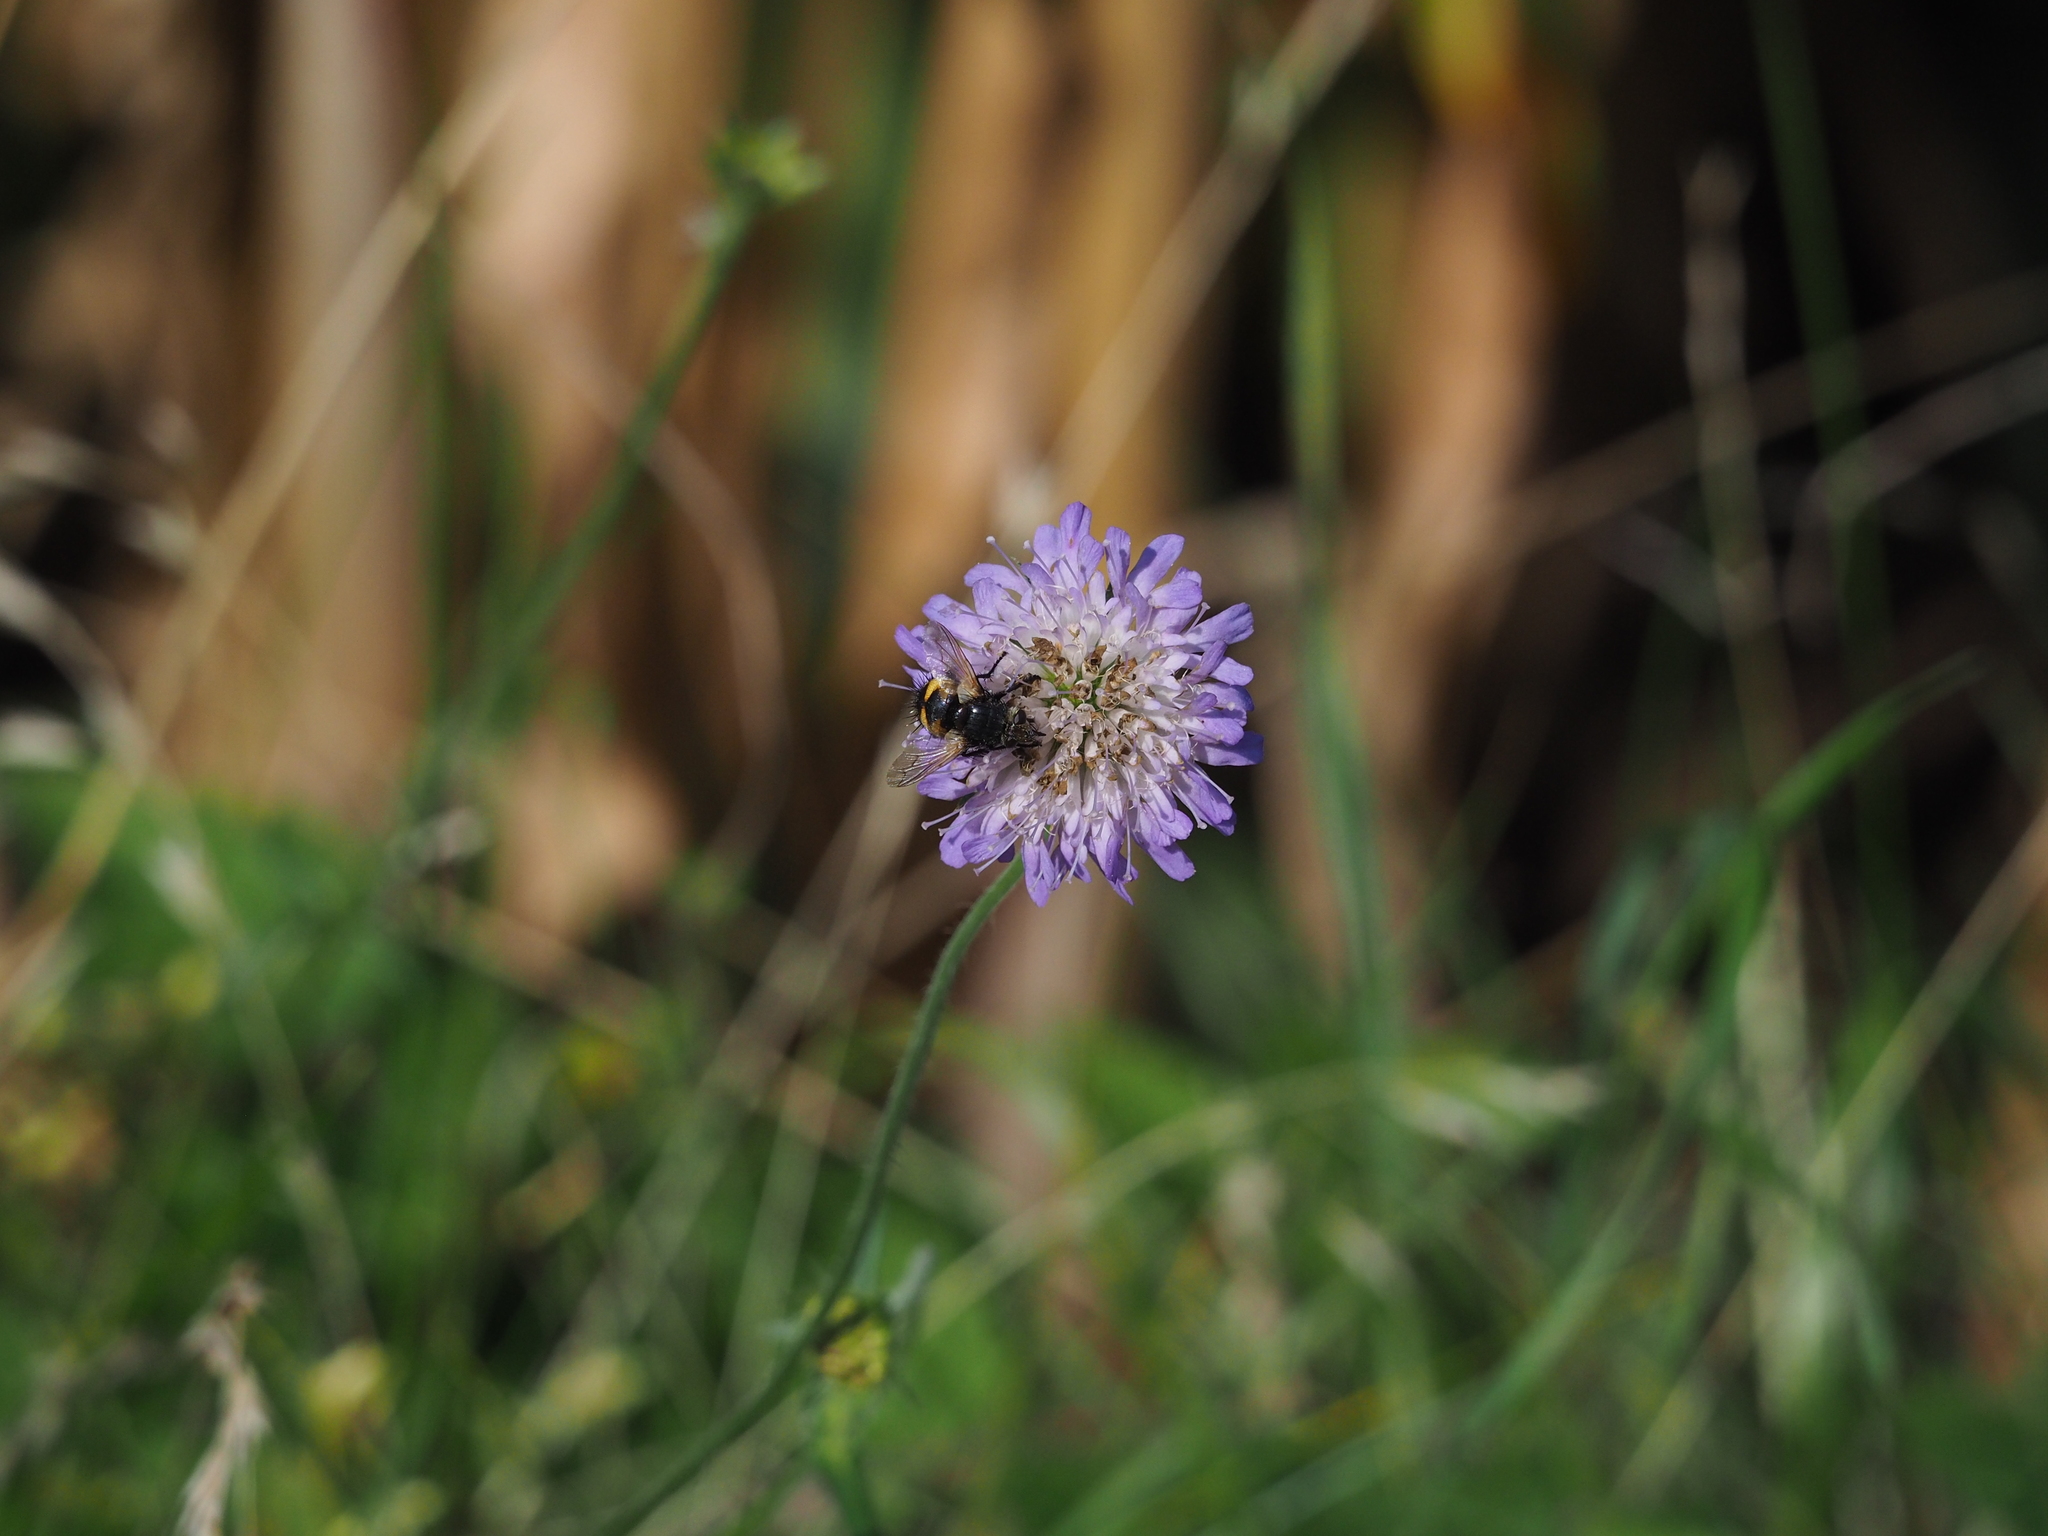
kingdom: Plantae
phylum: Tracheophyta
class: Magnoliopsida
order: Dipsacales
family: Caprifoliaceae
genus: Knautia
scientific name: Knautia arvensis
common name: Field scabiosa
